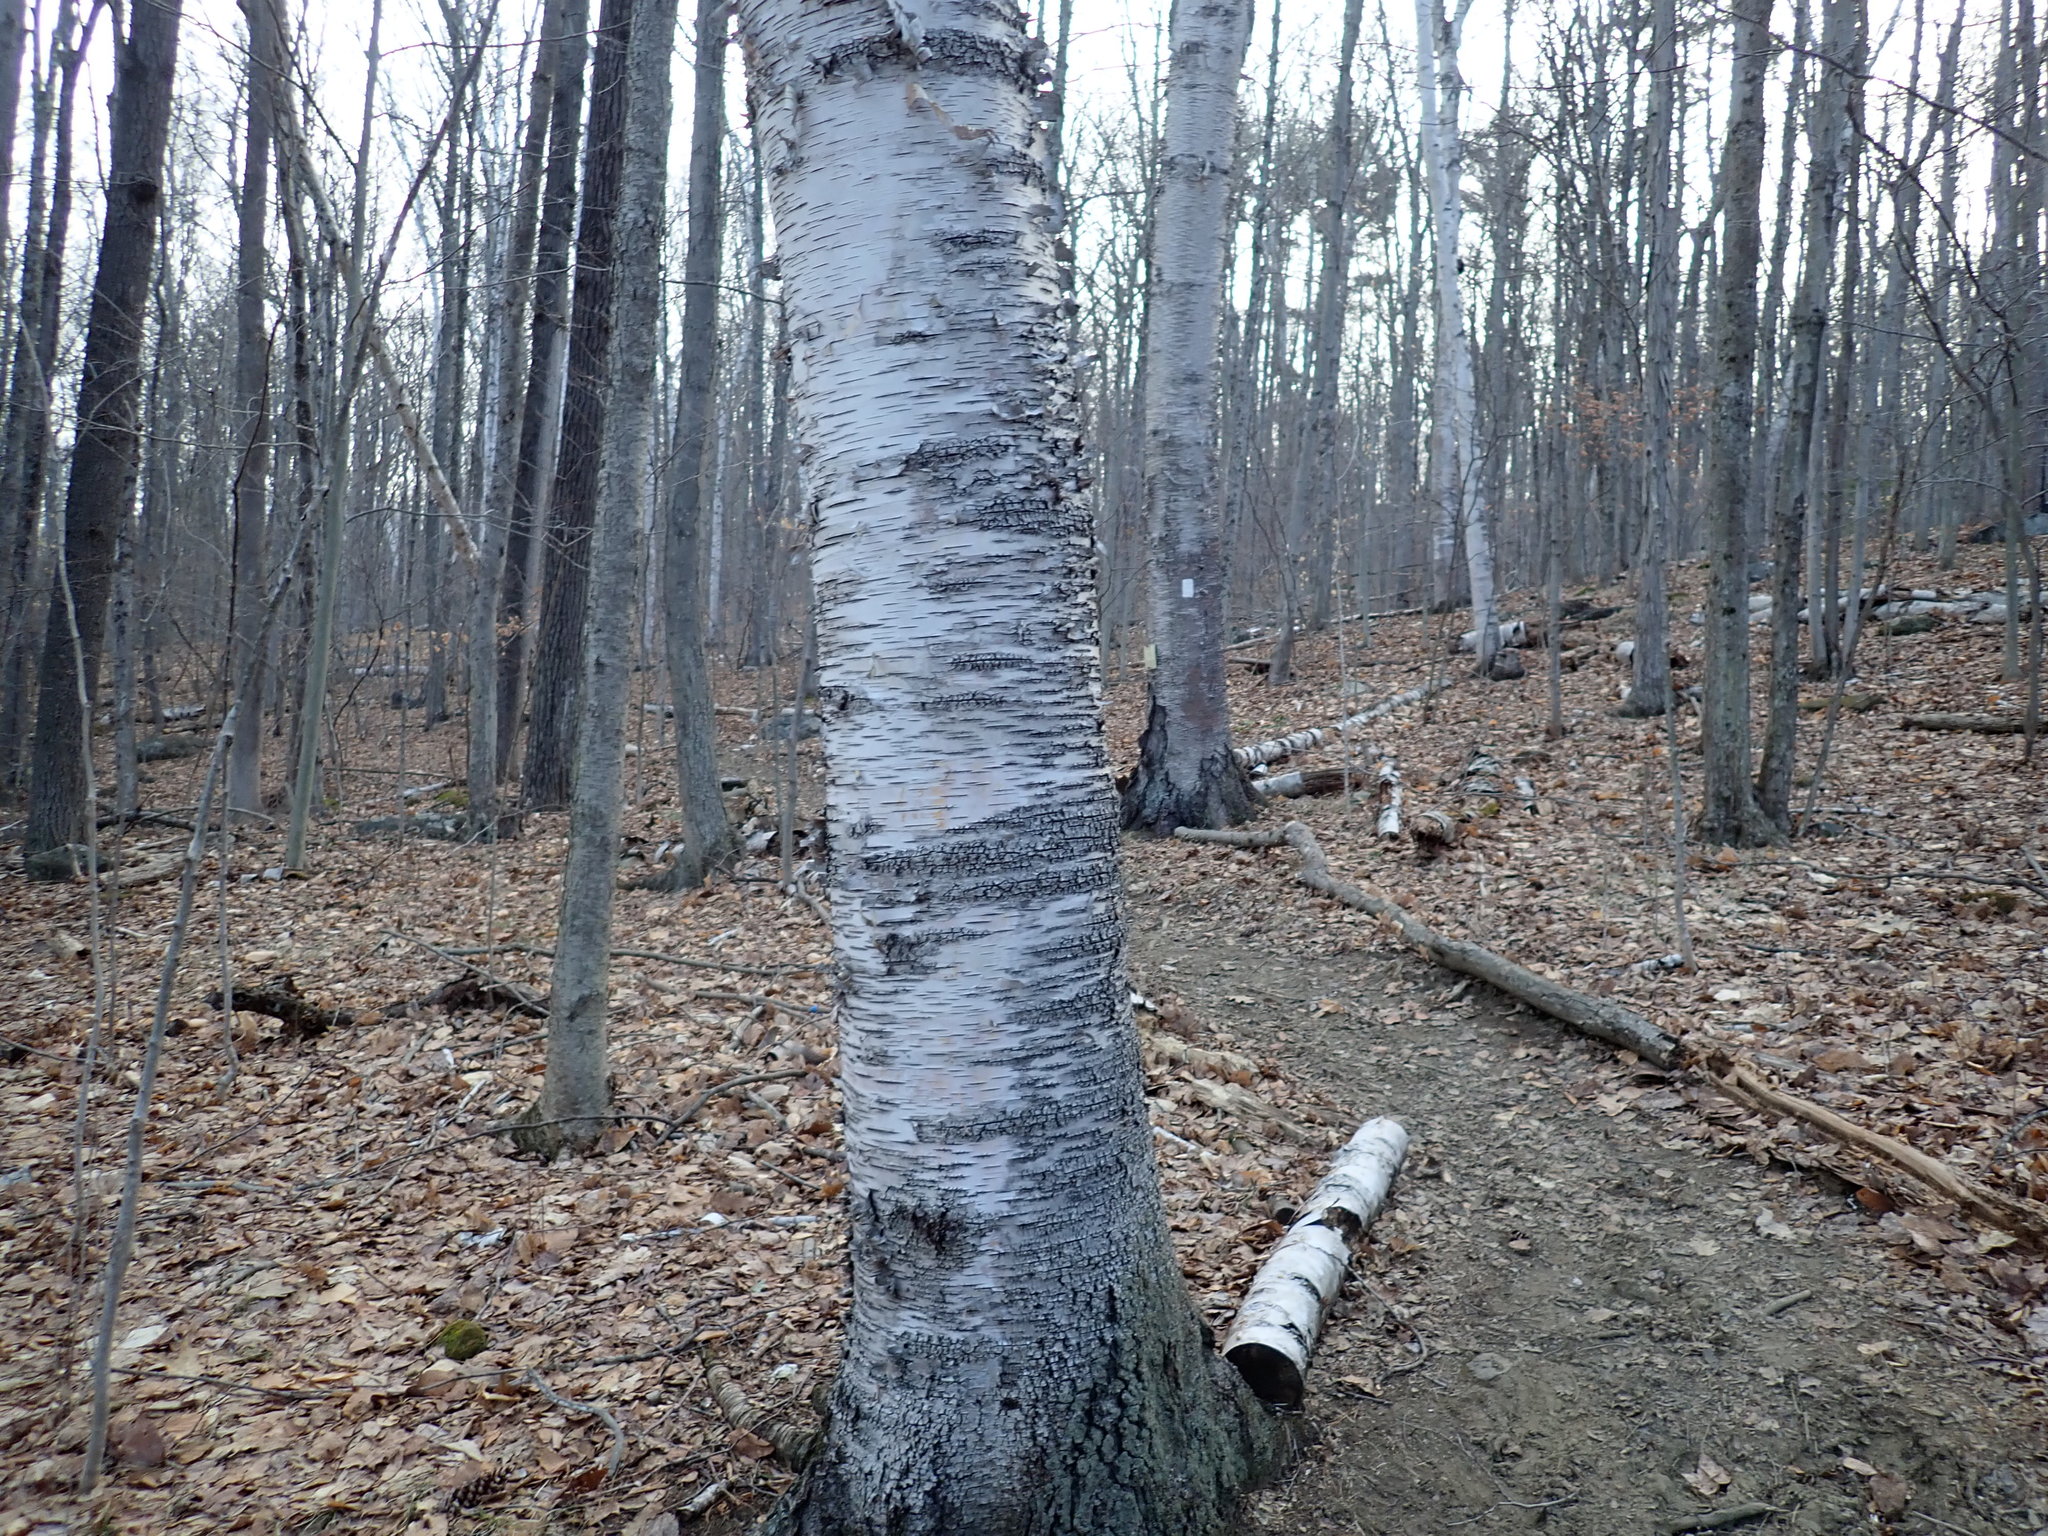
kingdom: Plantae
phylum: Tracheophyta
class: Magnoliopsida
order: Fagales
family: Betulaceae
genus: Betula
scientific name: Betula papyrifera
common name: Paper birch
